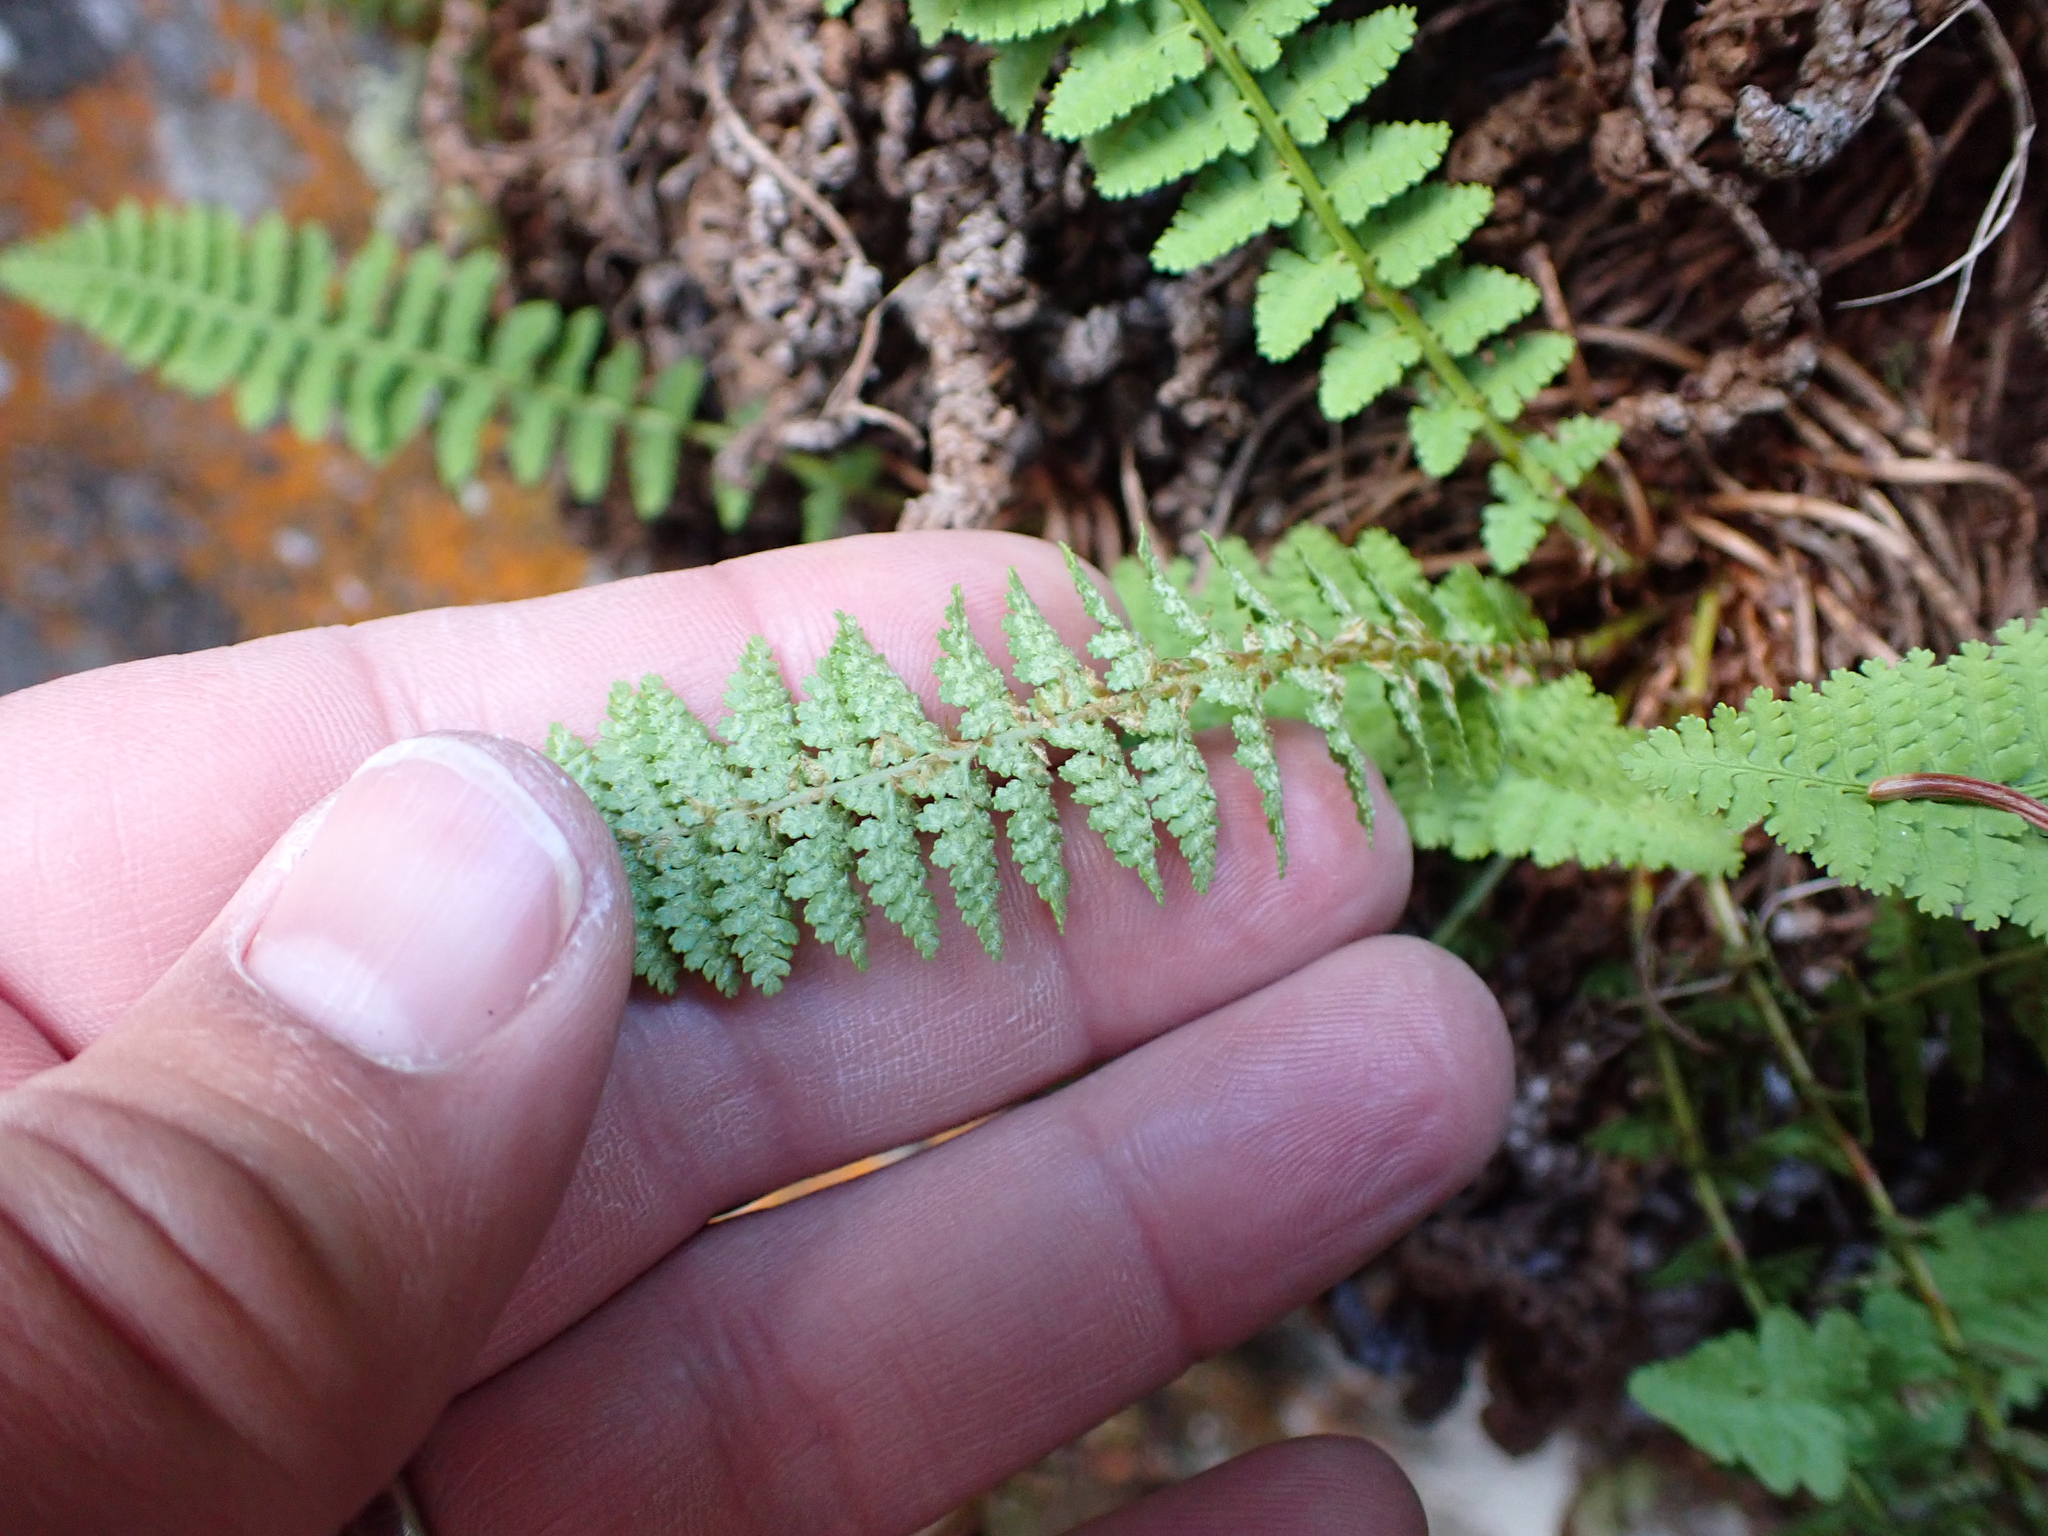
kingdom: Plantae
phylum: Tracheophyta
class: Polypodiopsida
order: Polypodiales
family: Dryopteridaceae
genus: Dryopteris
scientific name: Dryopteris fragrans
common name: Fragrant wood fern
